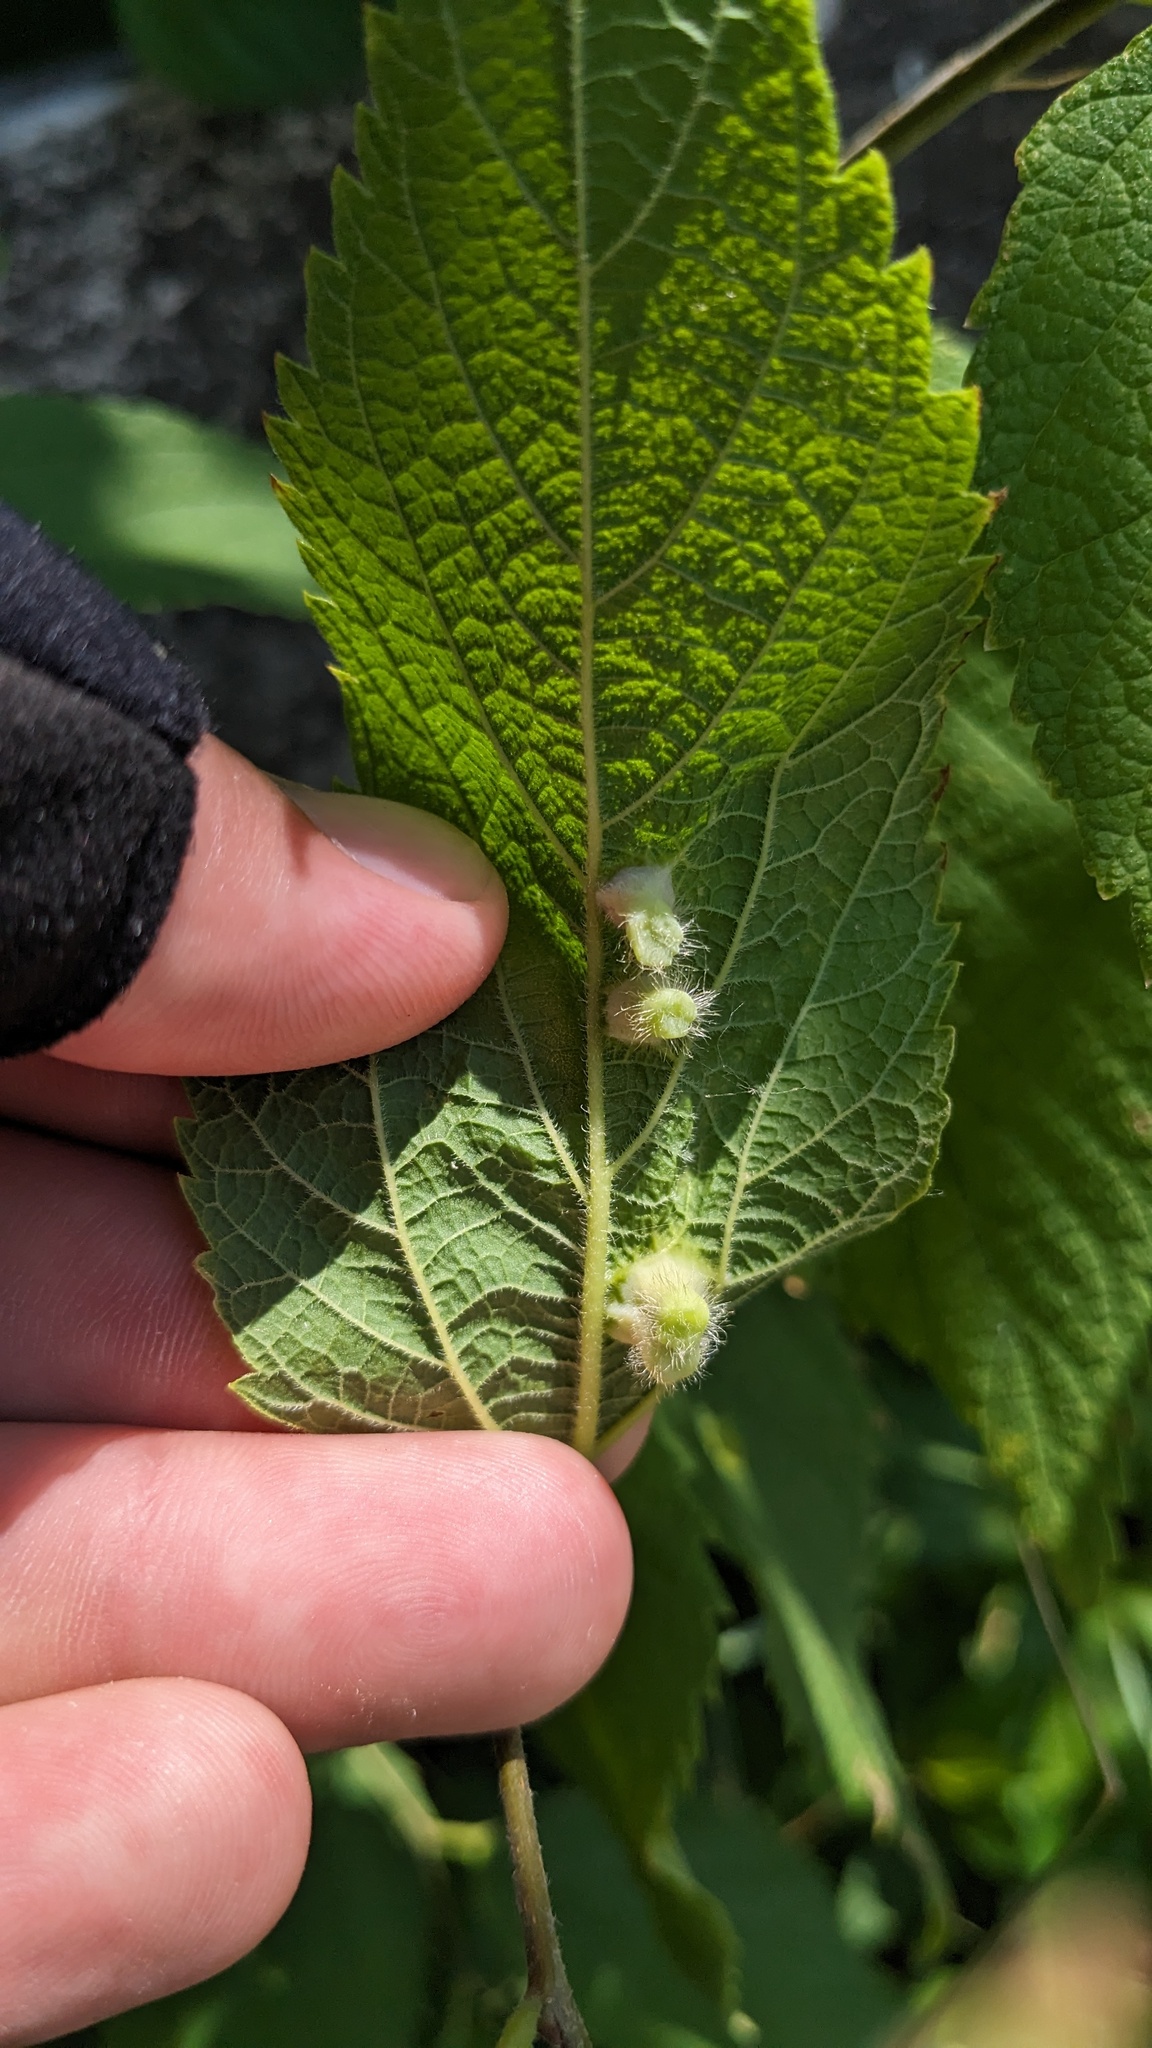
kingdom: Animalia
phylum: Arthropoda
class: Insecta
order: Hemiptera
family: Aphalaridae
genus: Pachypsylla
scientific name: Pachypsylla celtidismamma
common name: Hackberry nipplegall psyllid
